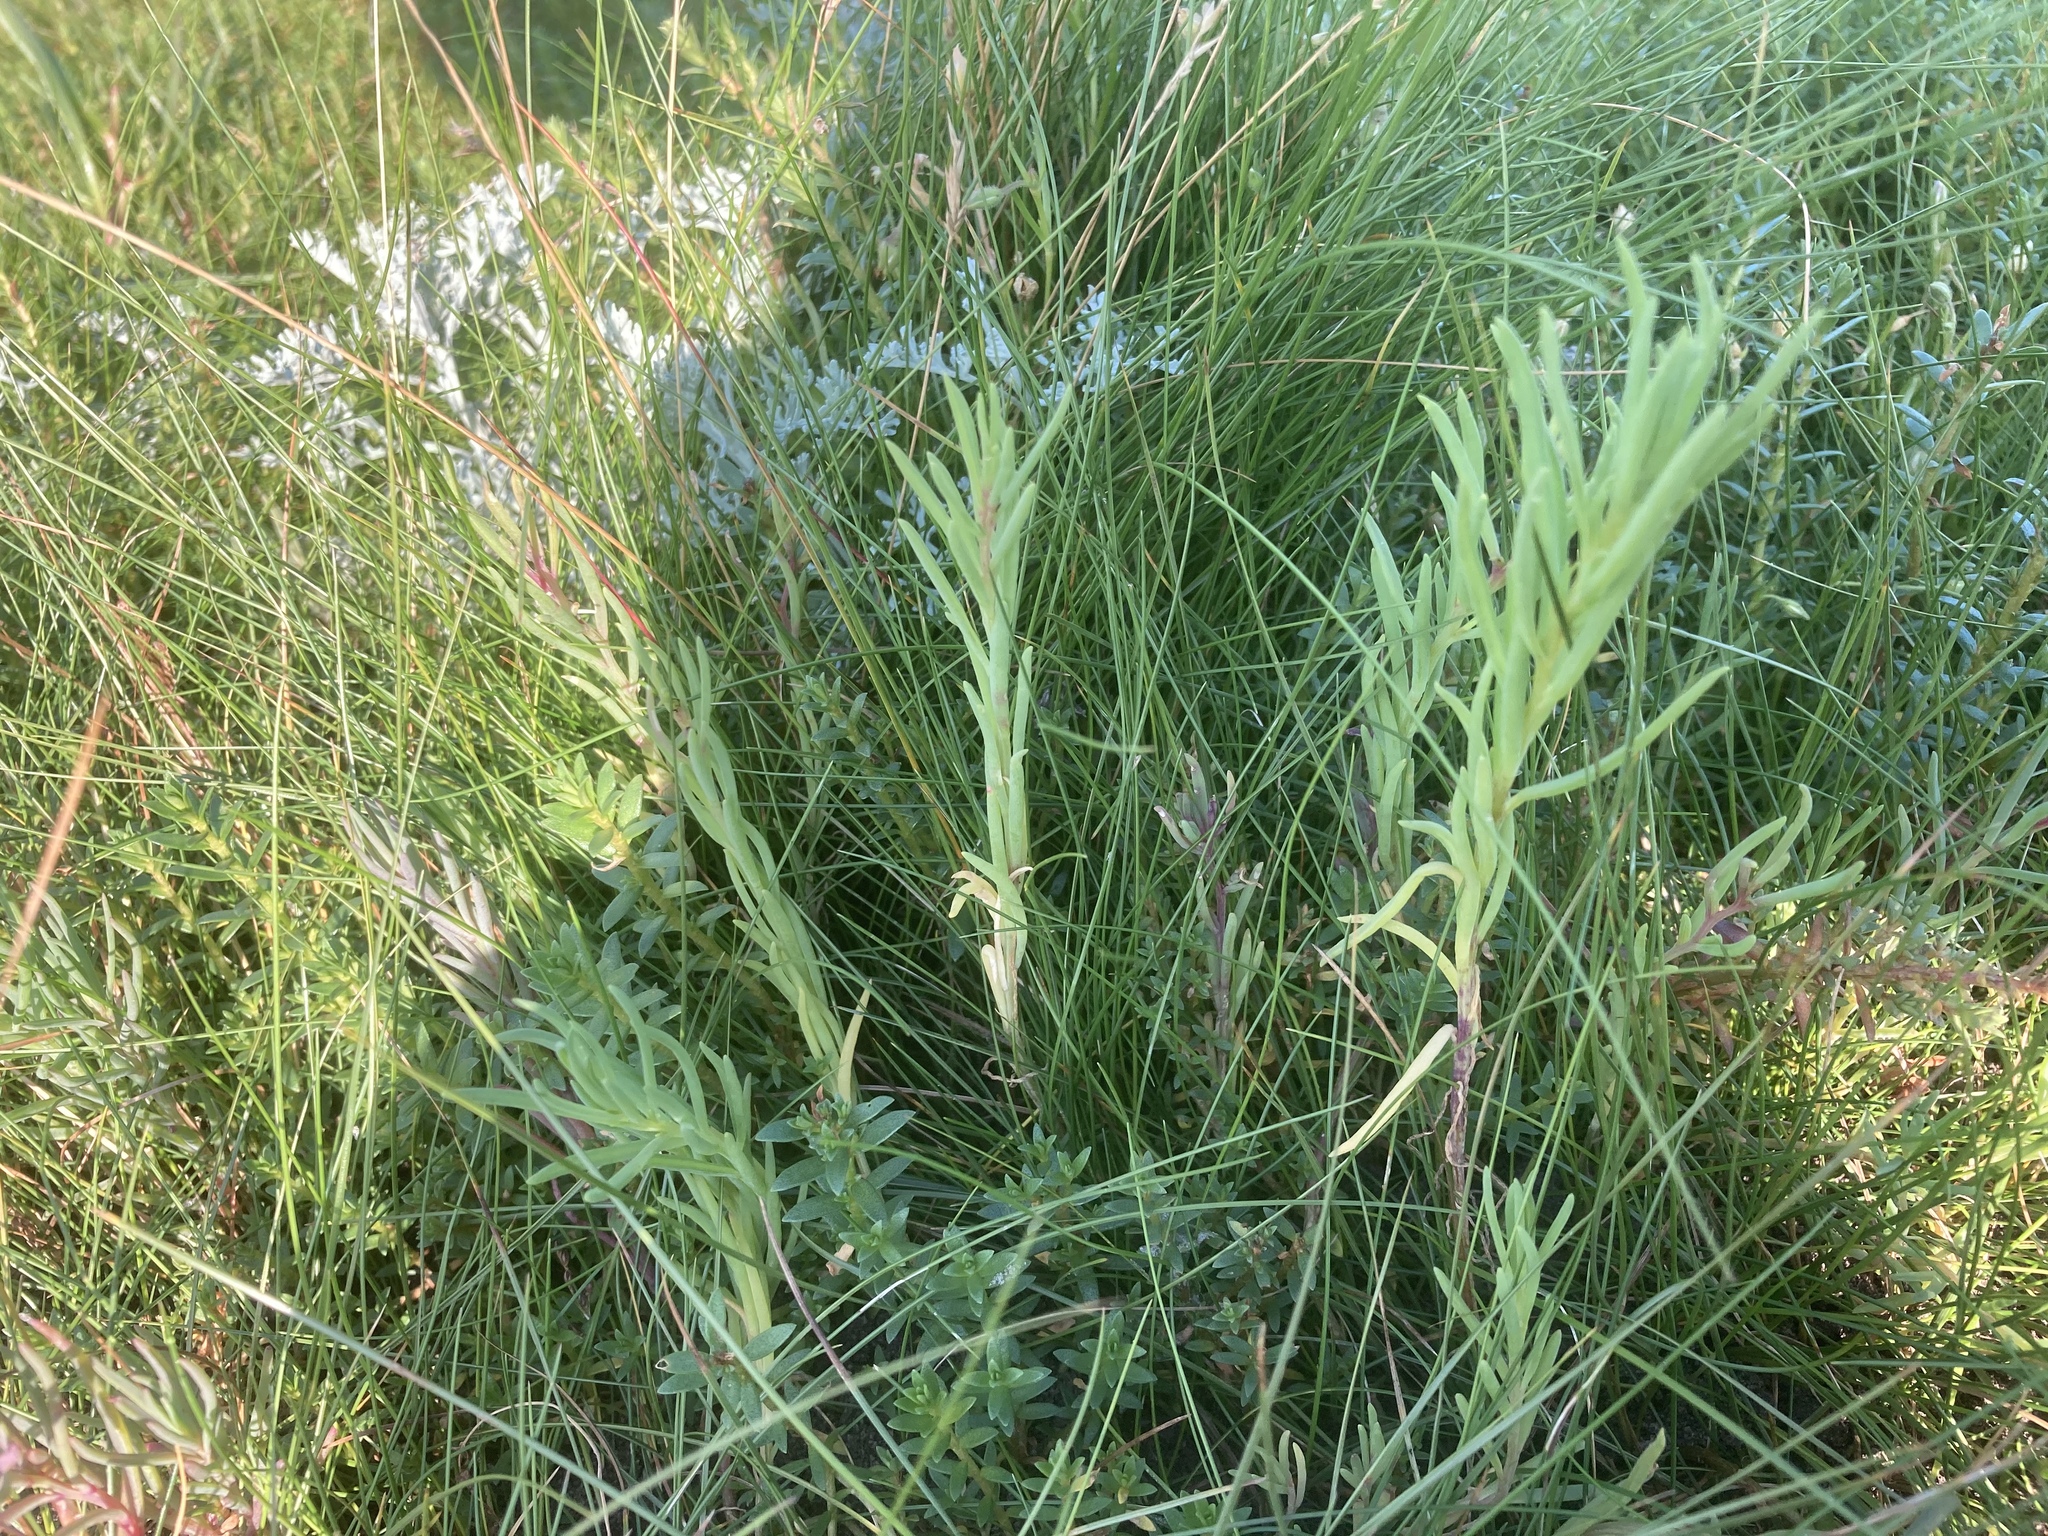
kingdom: Plantae
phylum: Tracheophyta
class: Magnoliopsida
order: Caryophyllales
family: Amaranthaceae
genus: Suaeda
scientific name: Suaeda maritima
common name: Annual sea-blite
